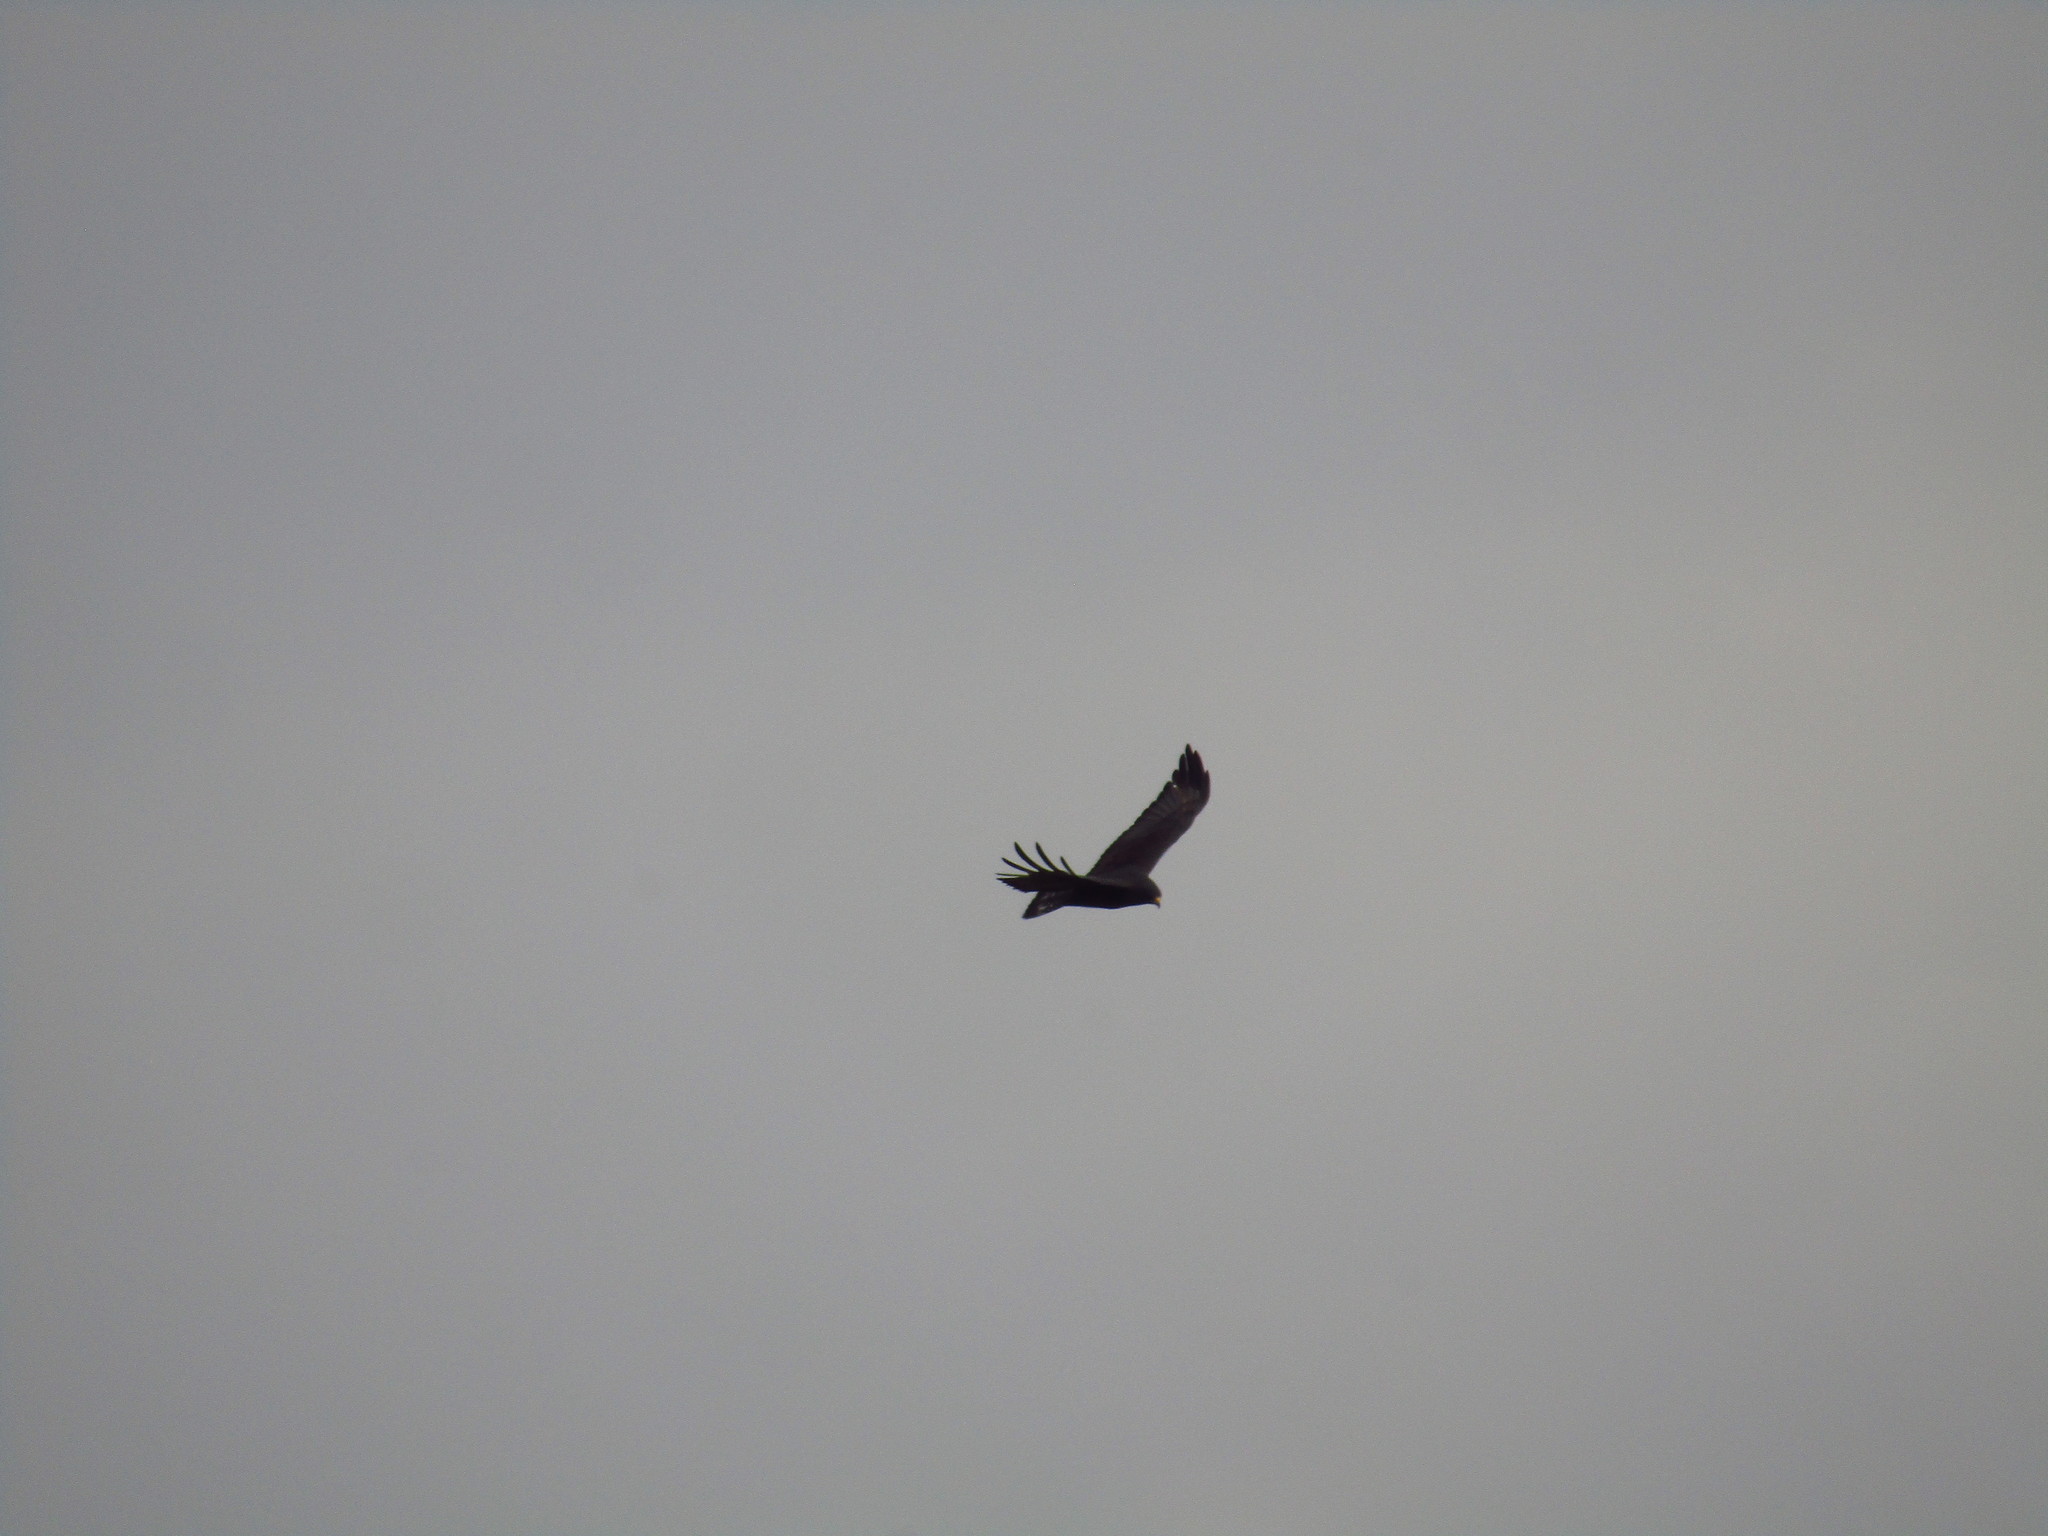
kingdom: Animalia
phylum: Chordata
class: Aves
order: Accipitriformes
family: Accipitridae
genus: Buteo
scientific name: Buteo albonotatus
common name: Zone-tailed hawk
